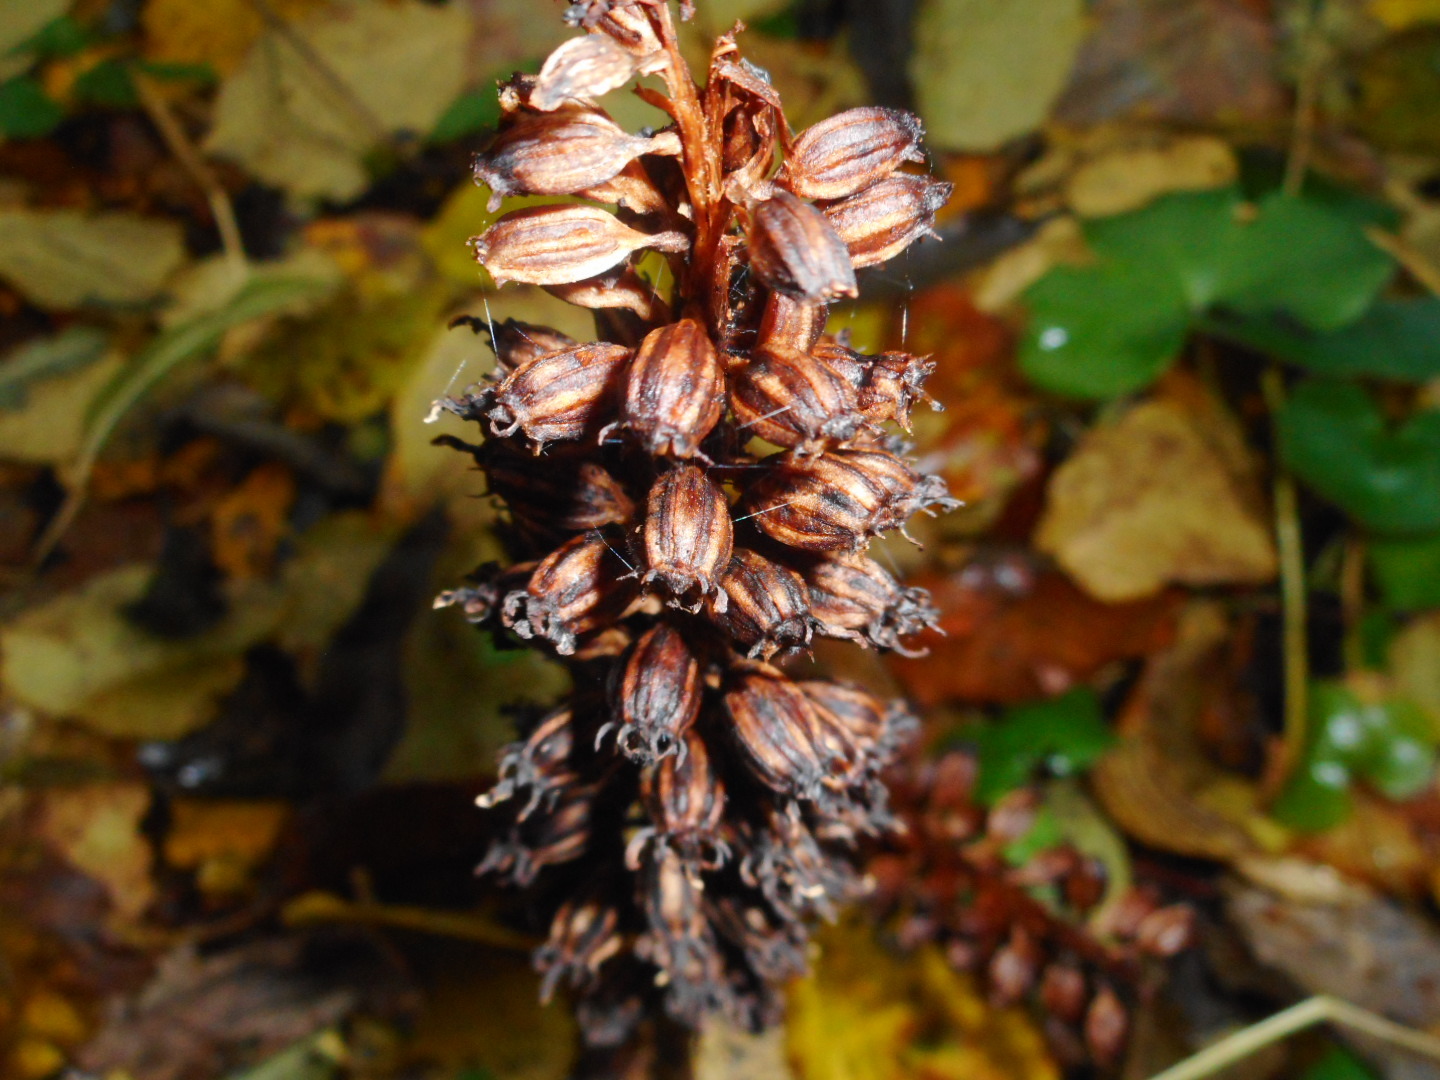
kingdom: Plantae
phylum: Tracheophyta
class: Liliopsida
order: Asparagales
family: Orchidaceae
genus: Neottia
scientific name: Neottia nidus-avis
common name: Bird's-nest orchid
